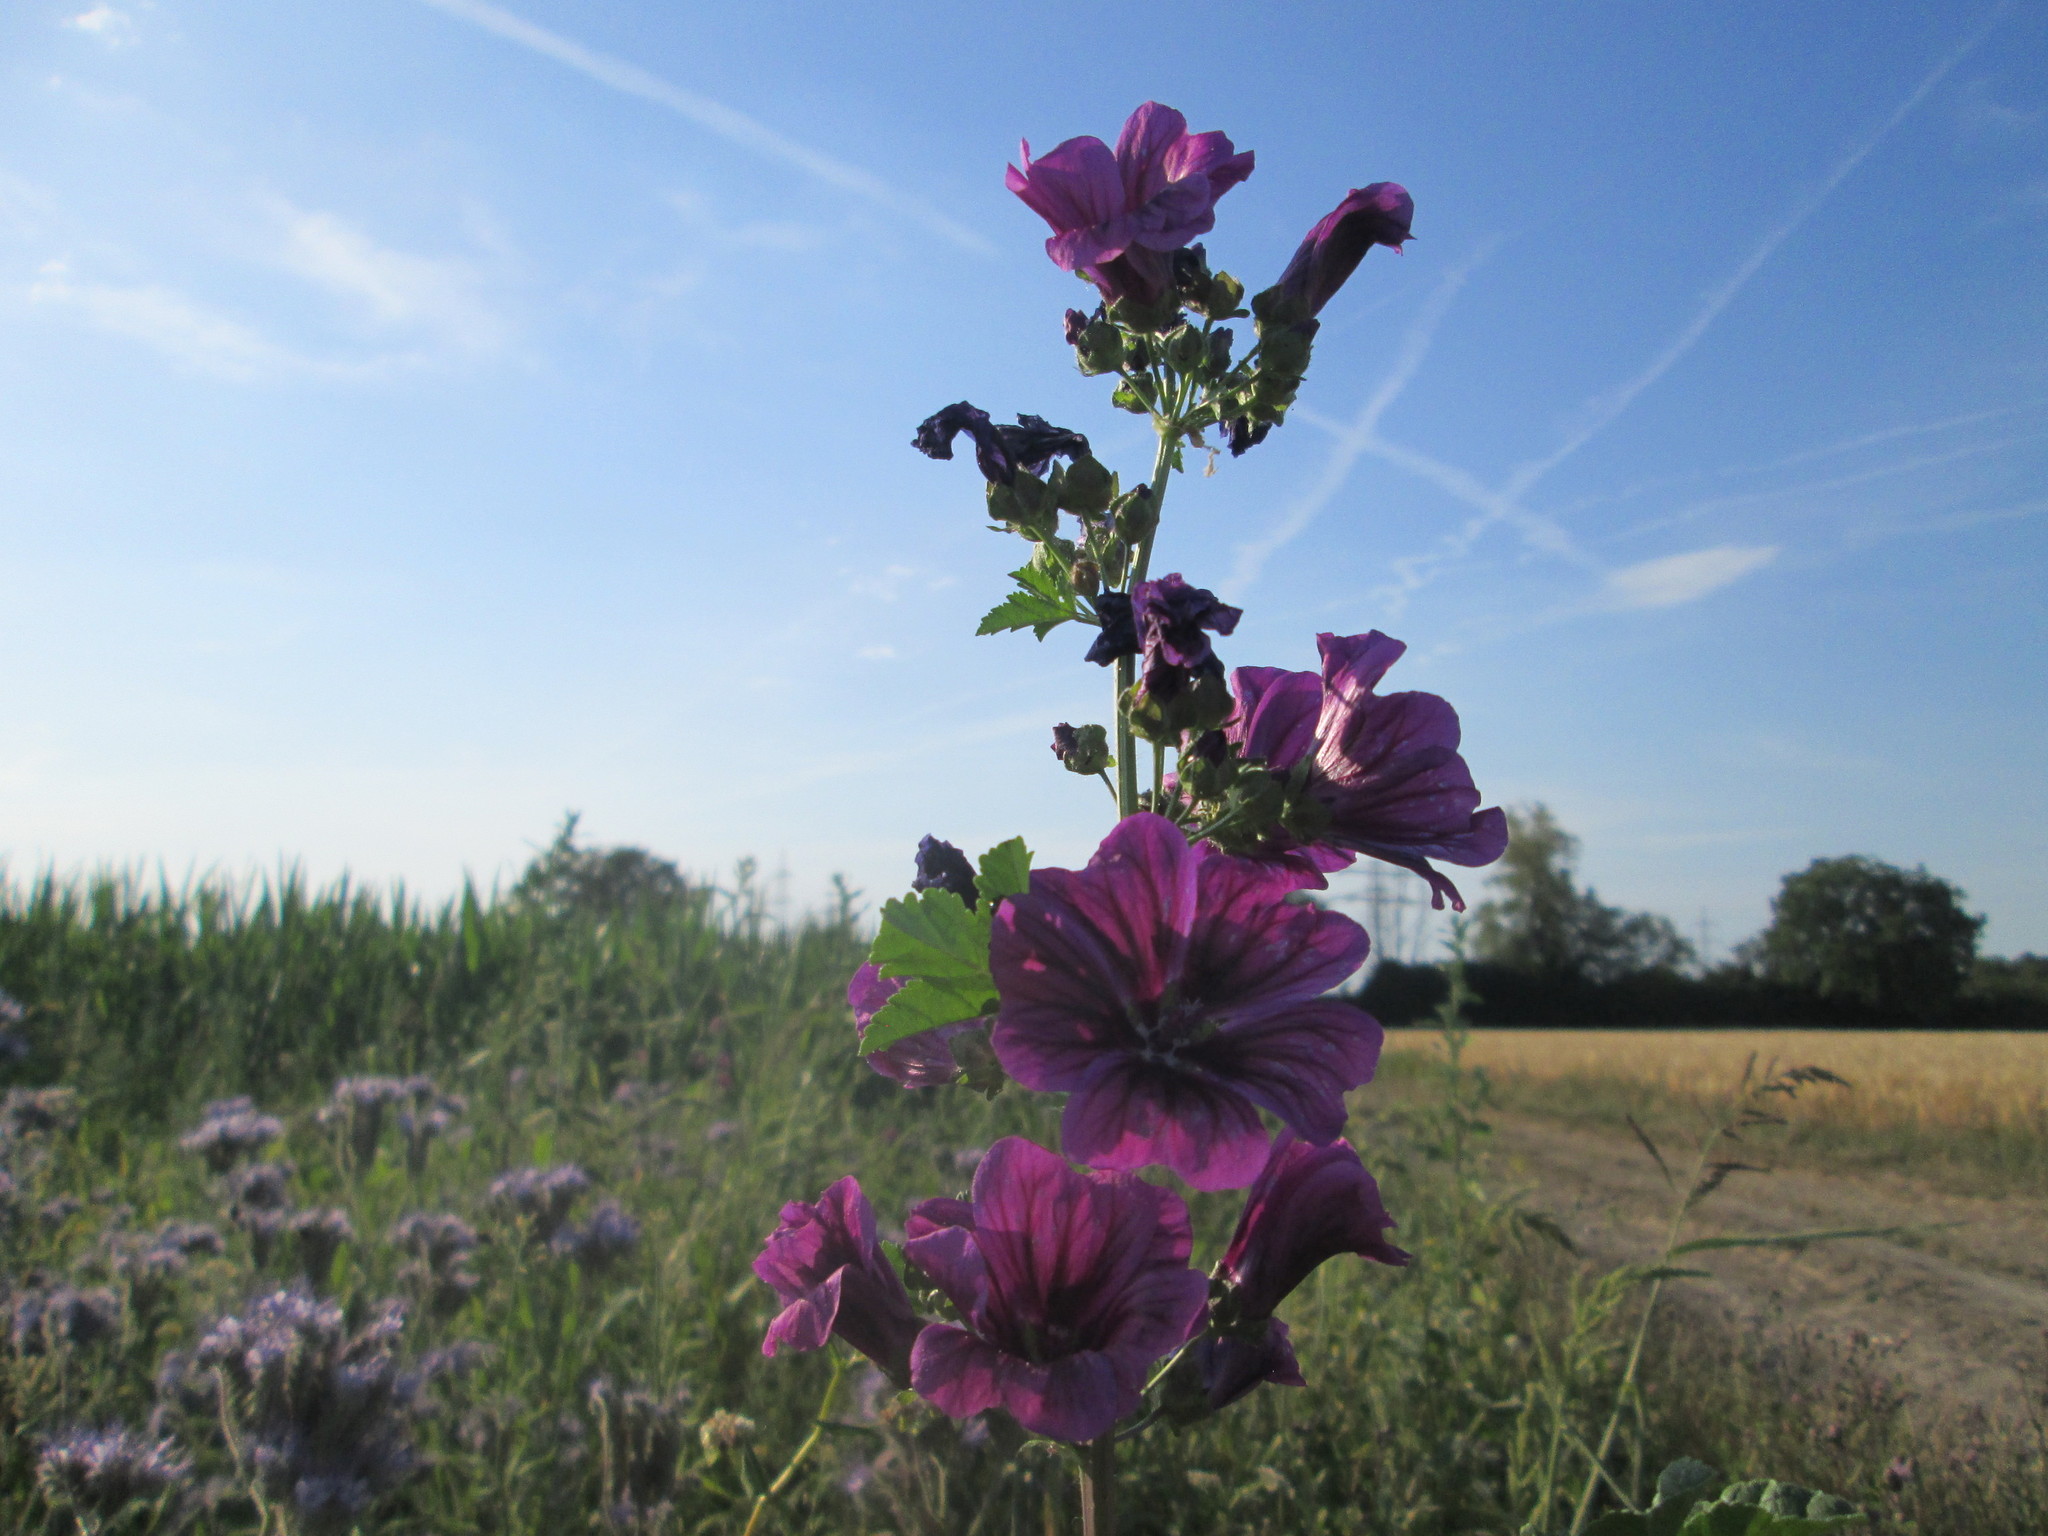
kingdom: Plantae
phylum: Tracheophyta
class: Magnoliopsida
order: Malvales
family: Malvaceae
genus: Malva
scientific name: Malva sylvestris
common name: Common mallow
